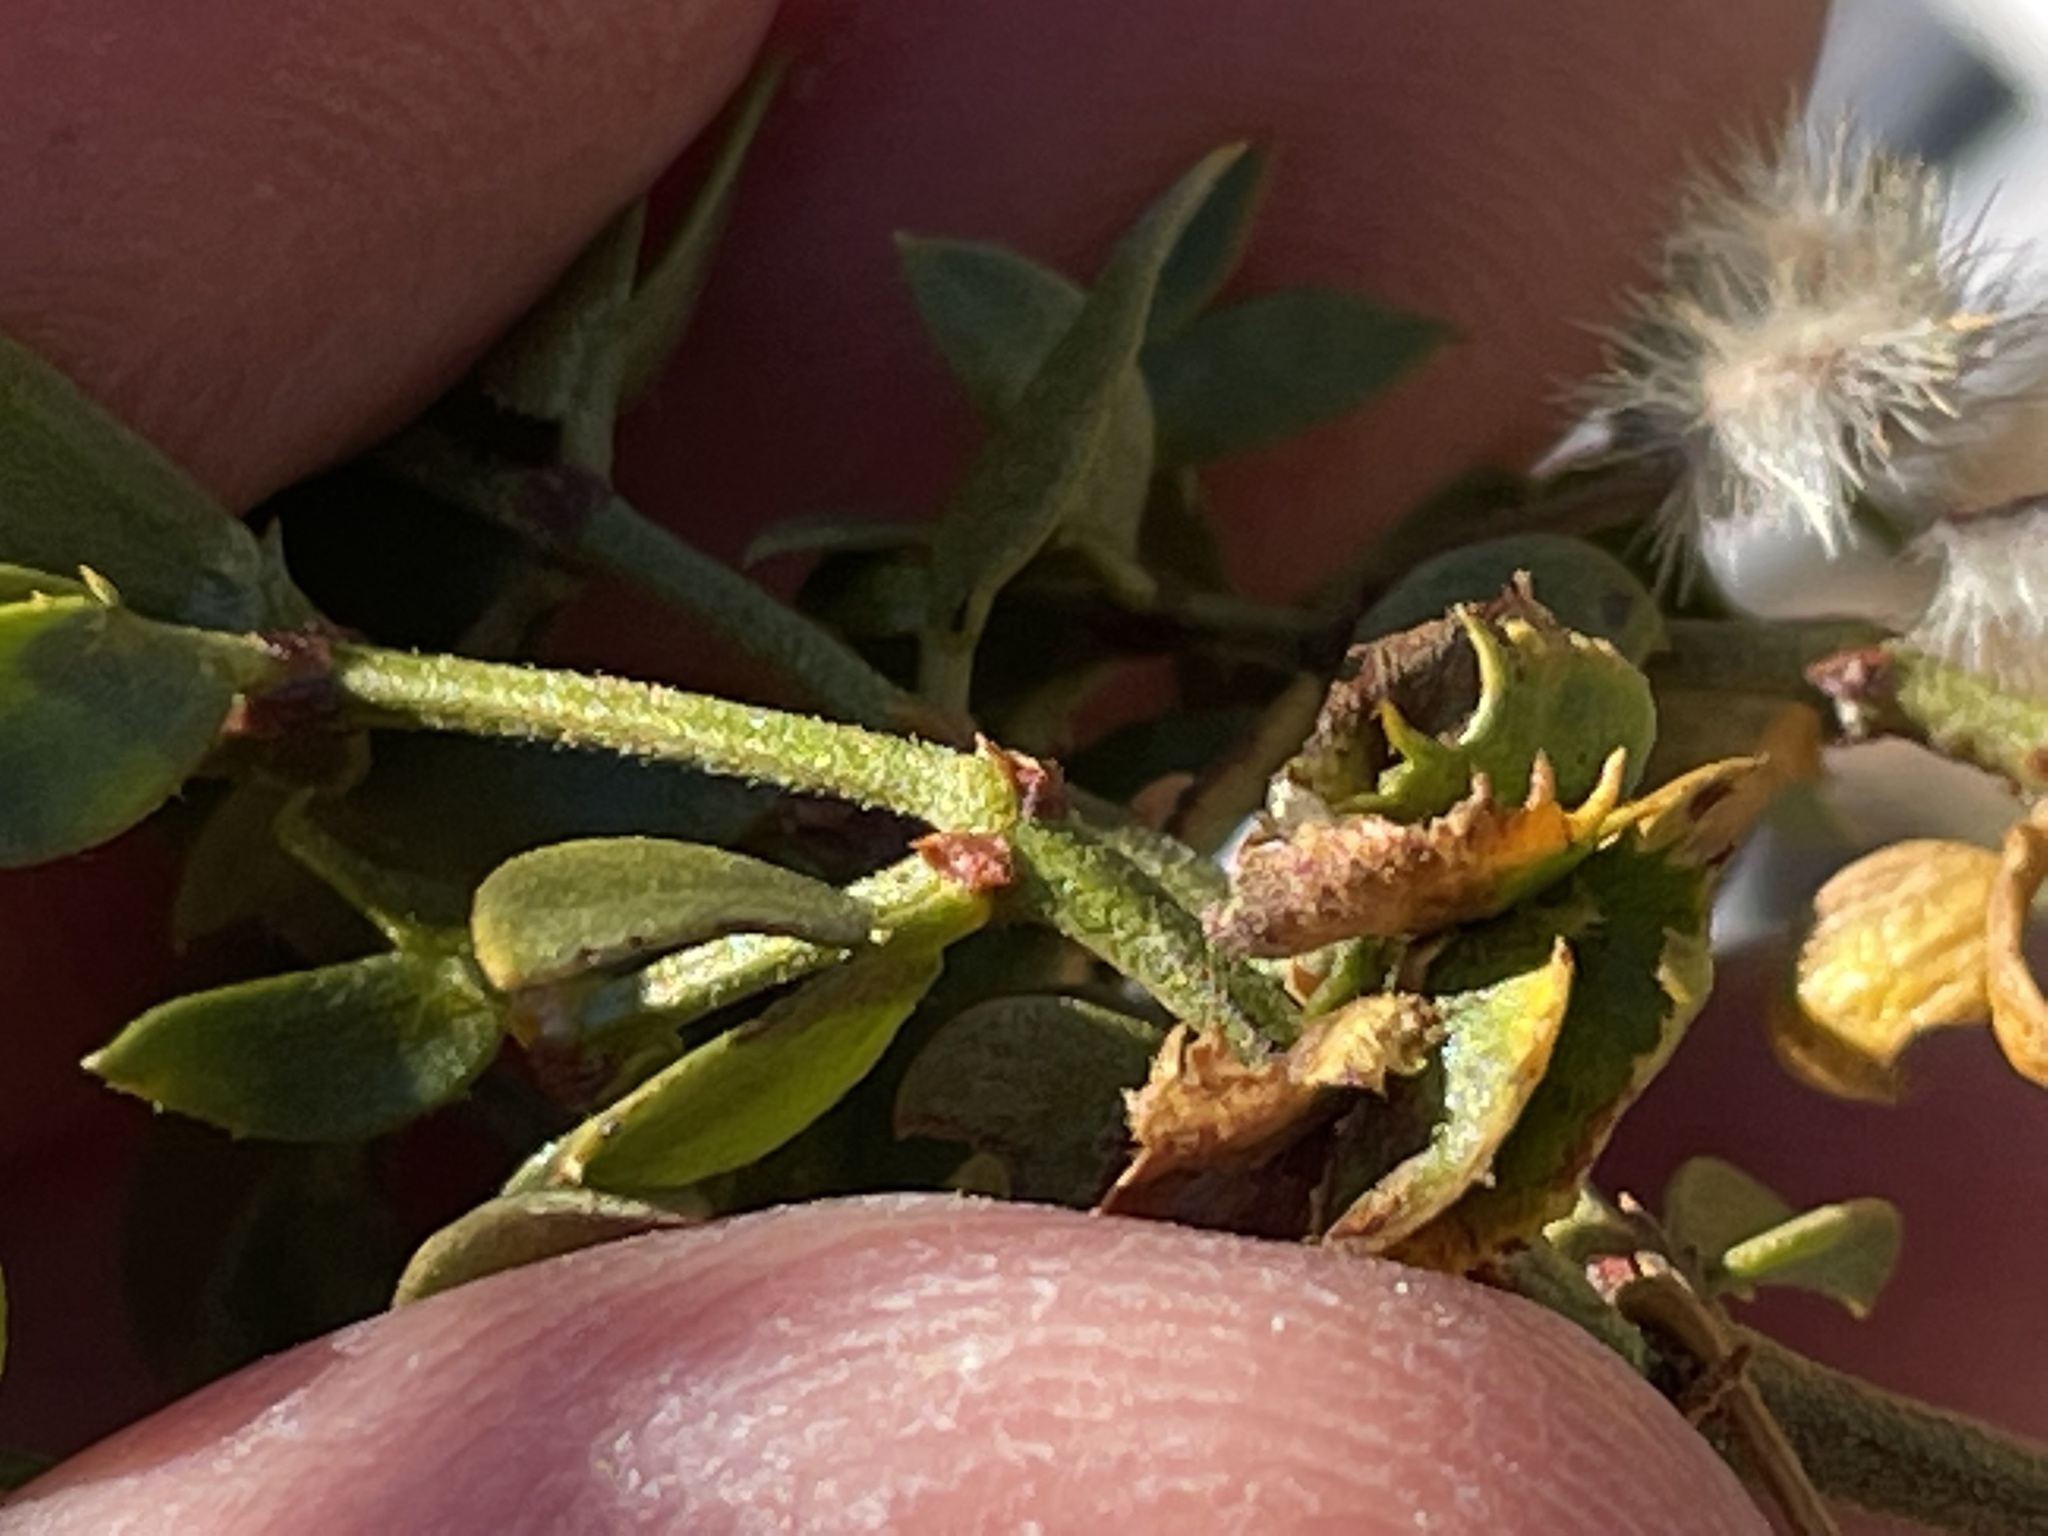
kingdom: Animalia
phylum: Arthropoda
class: Insecta
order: Diptera
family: Cecidomyiidae
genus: Asphondylia
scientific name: Asphondylia digitata
